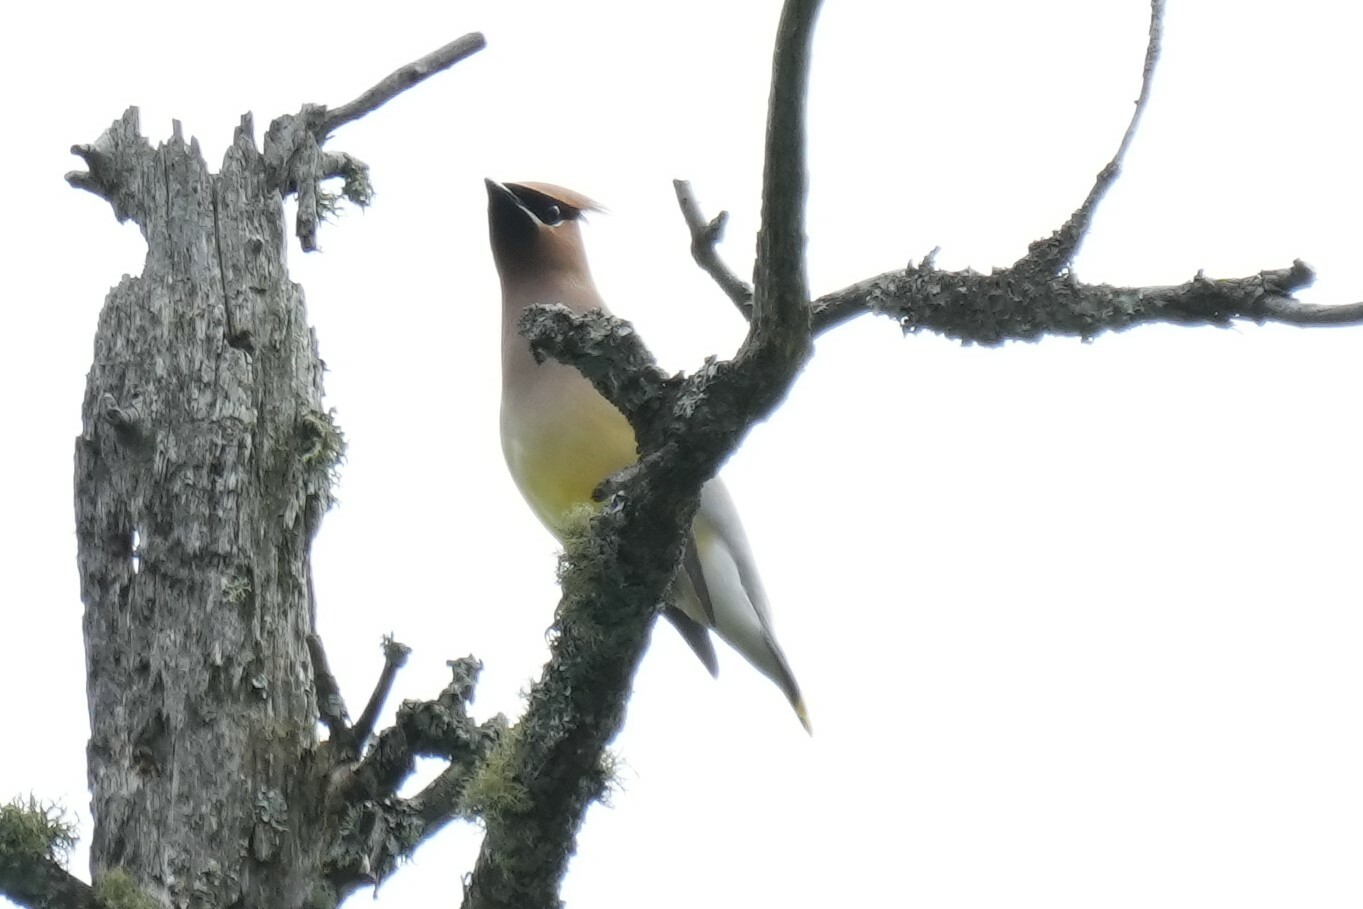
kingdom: Animalia
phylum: Chordata
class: Aves
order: Passeriformes
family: Bombycillidae
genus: Bombycilla
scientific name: Bombycilla cedrorum
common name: Cedar waxwing
